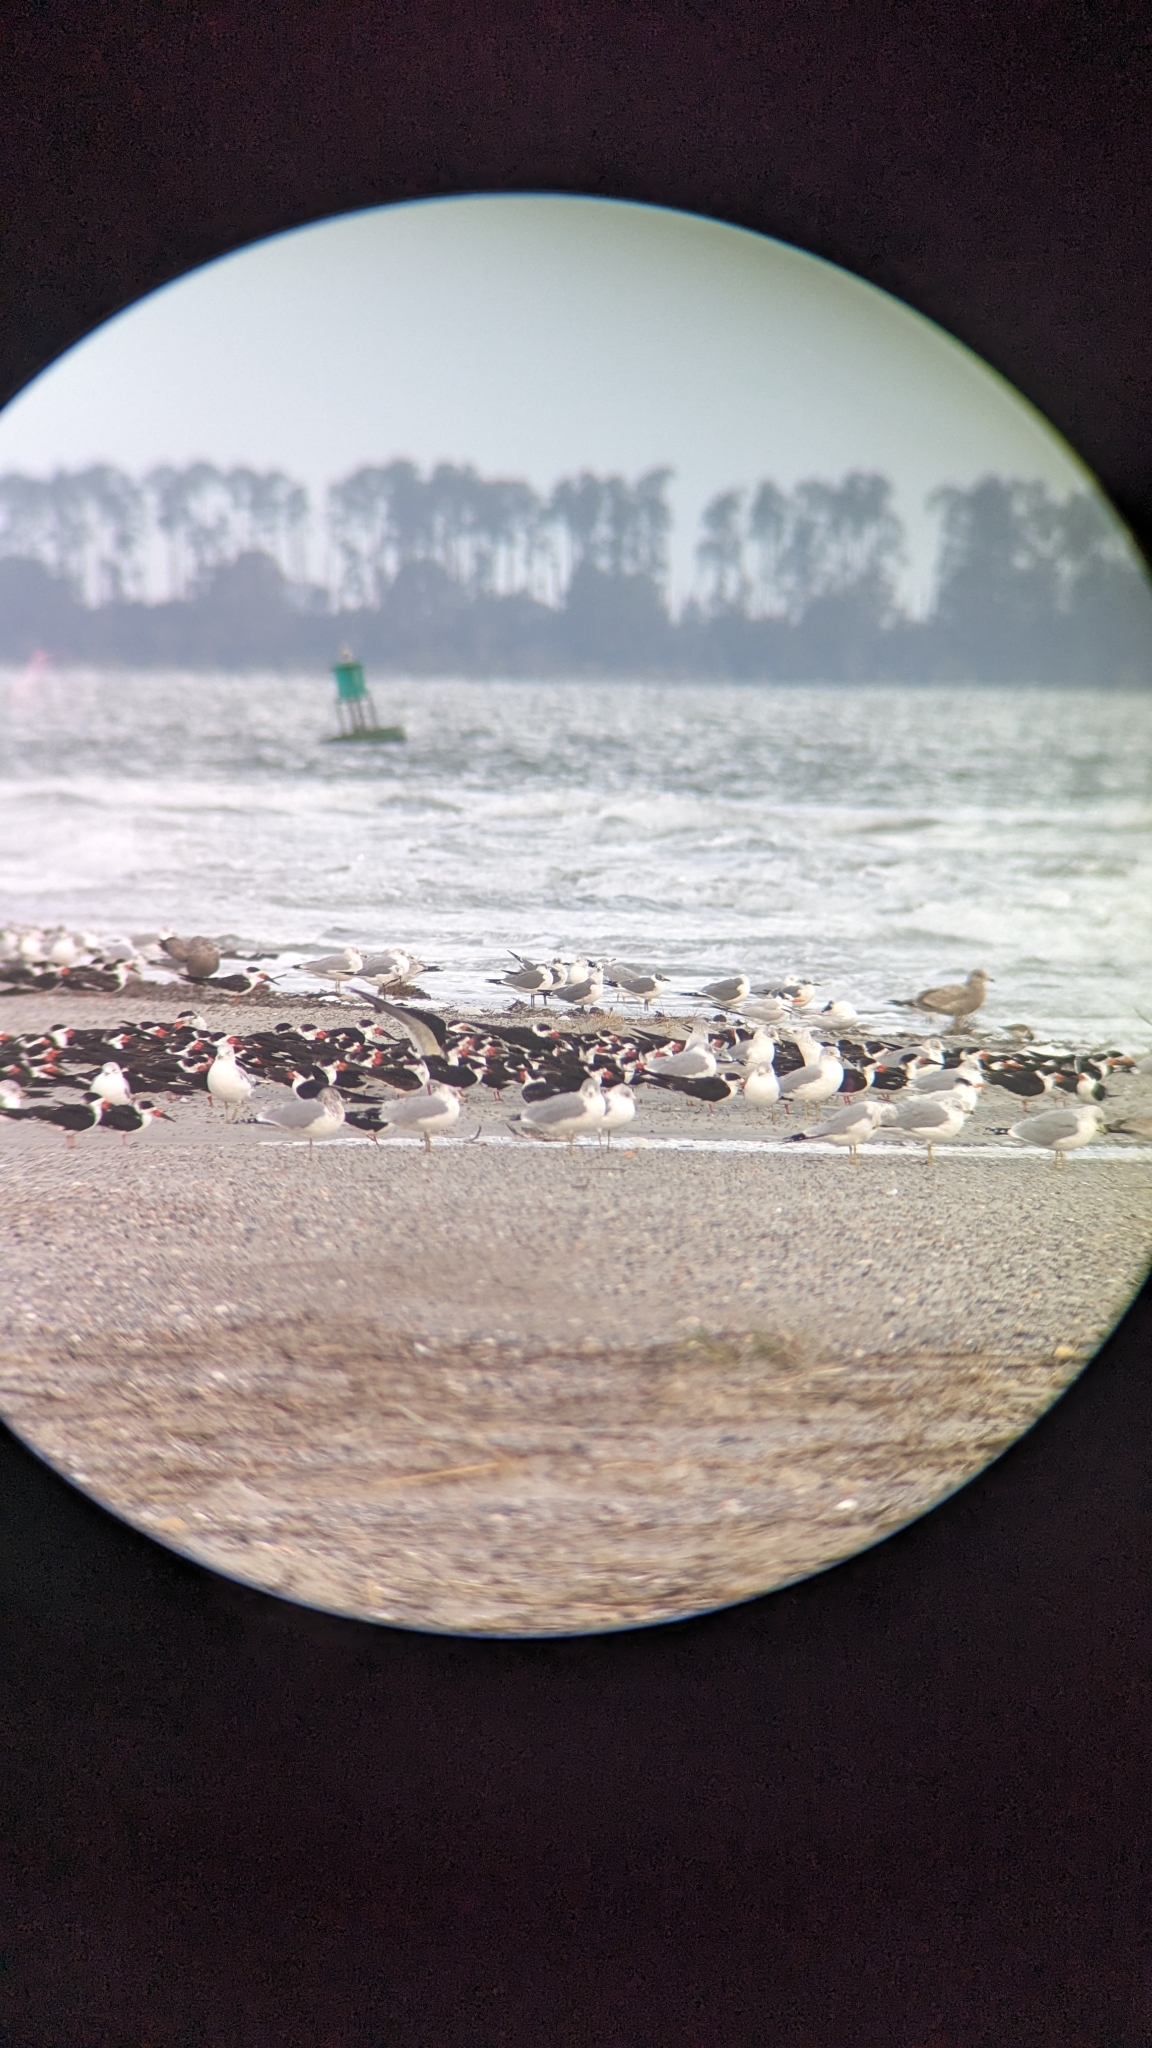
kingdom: Animalia
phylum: Chordata
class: Aves
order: Charadriiformes
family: Laridae
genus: Rynchops
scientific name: Rynchops niger
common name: Black skimmer
